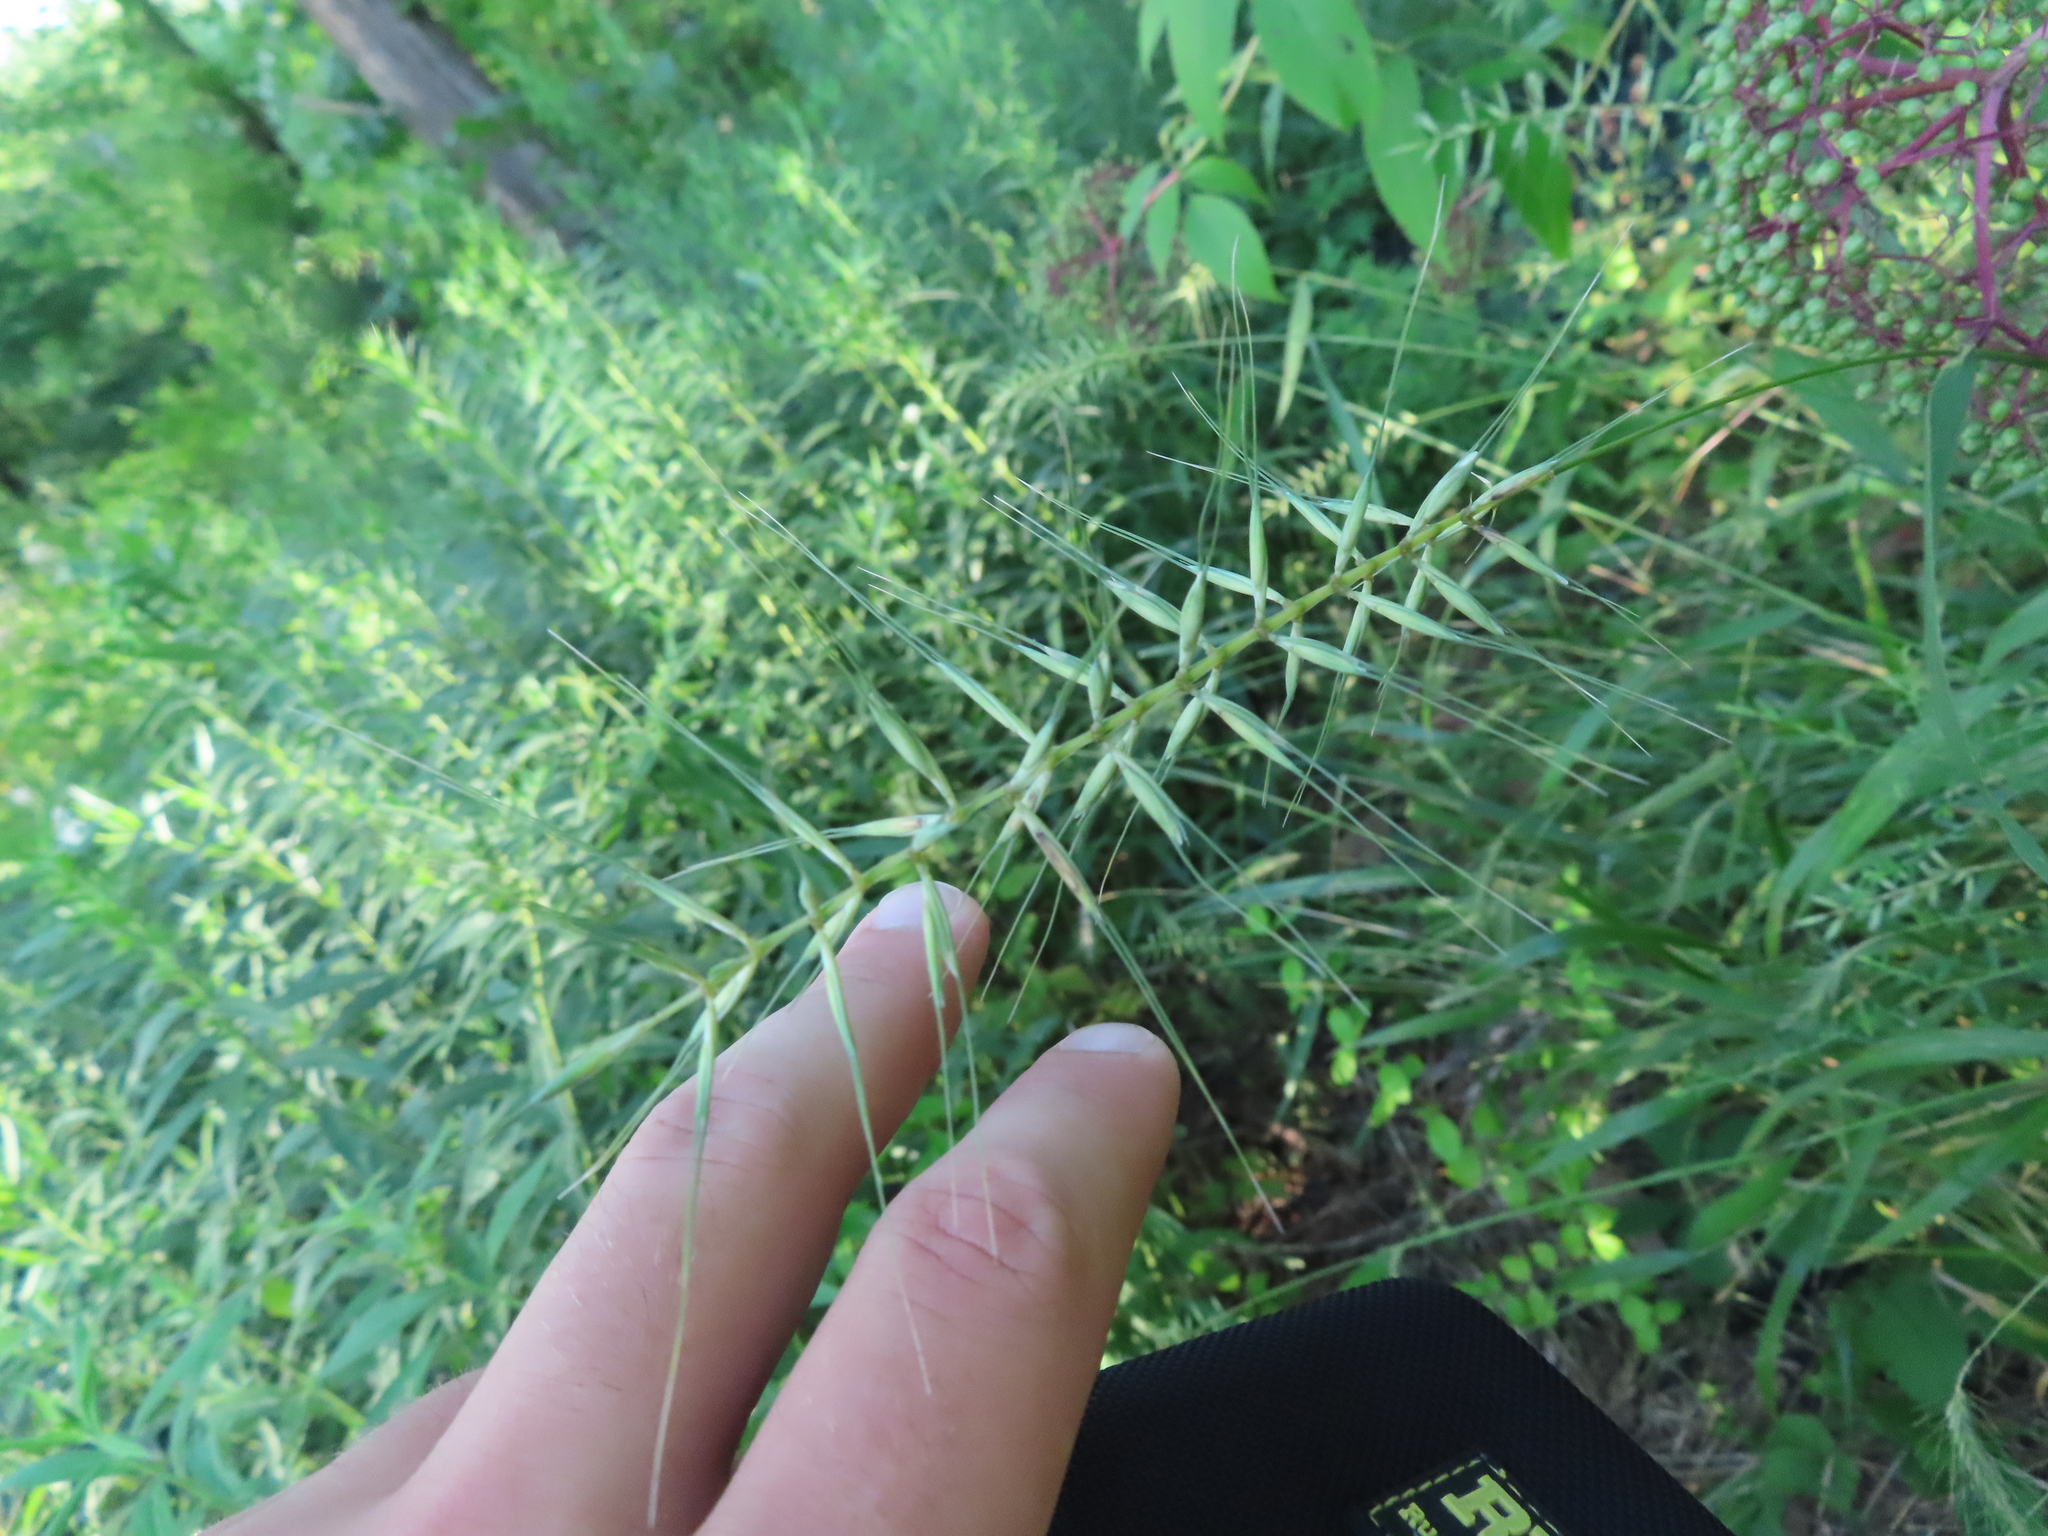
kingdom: Plantae
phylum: Tracheophyta
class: Liliopsida
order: Poales
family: Poaceae
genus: Elymus
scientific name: Elymus hystrix
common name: Bottlebrush grass
